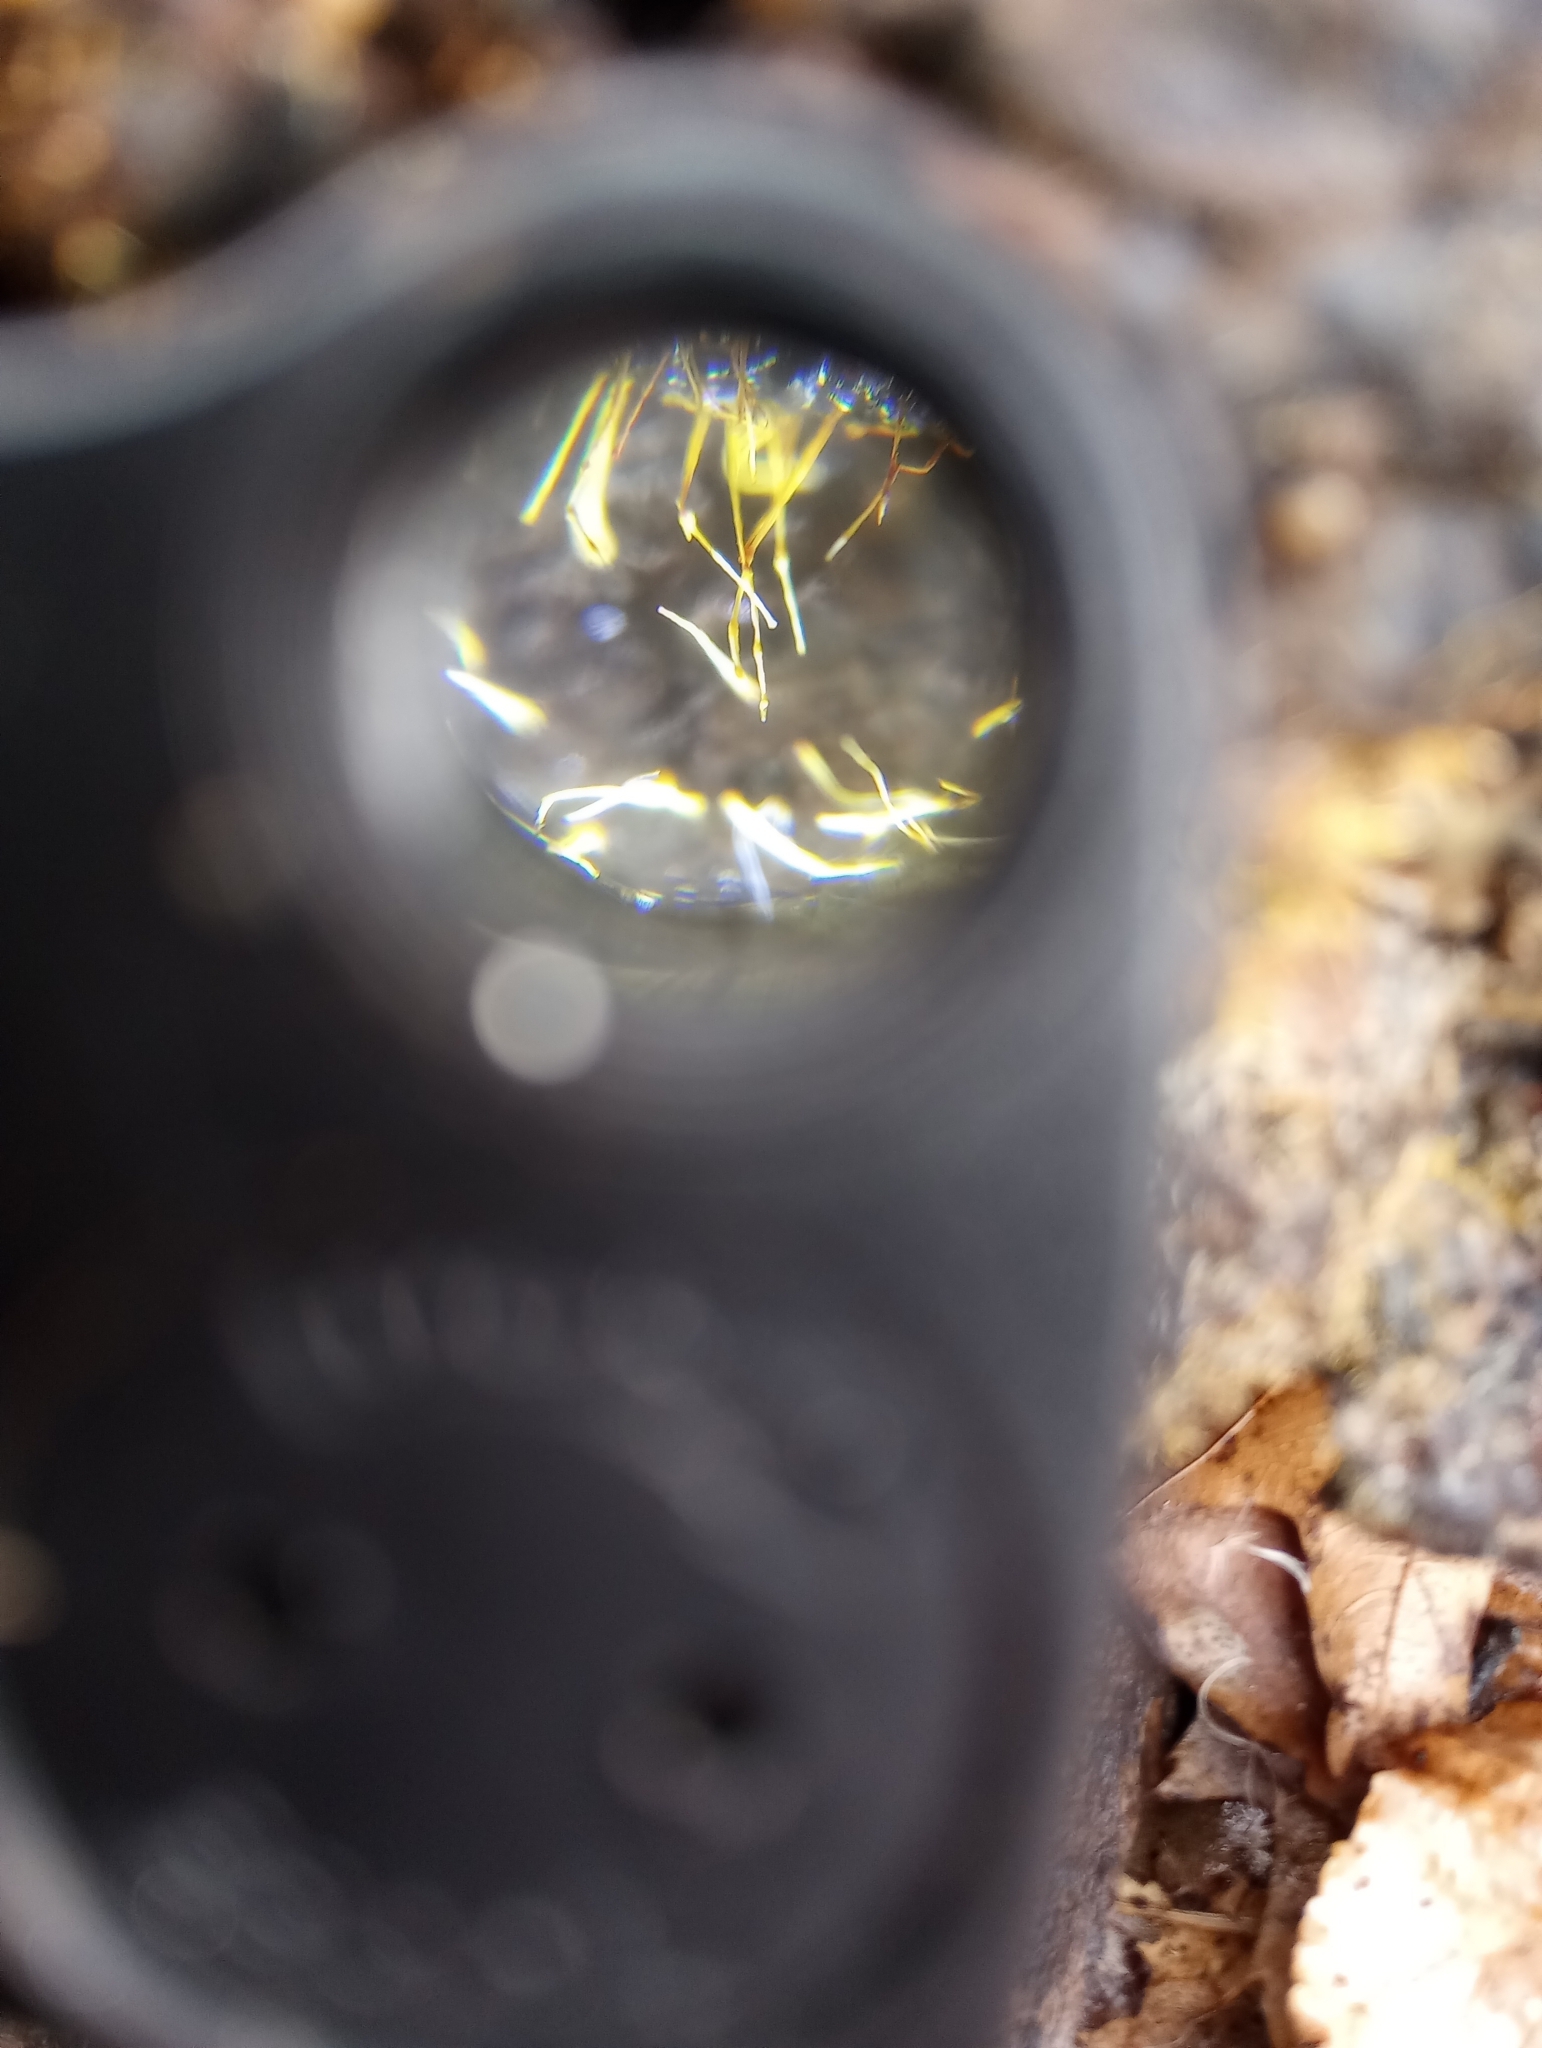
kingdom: Fungi
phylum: Ascomycota
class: Sordariomycetes
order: Hypocreales
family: Hypocreaceae
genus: Gliocladium
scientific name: Gliocladium polyporicola
